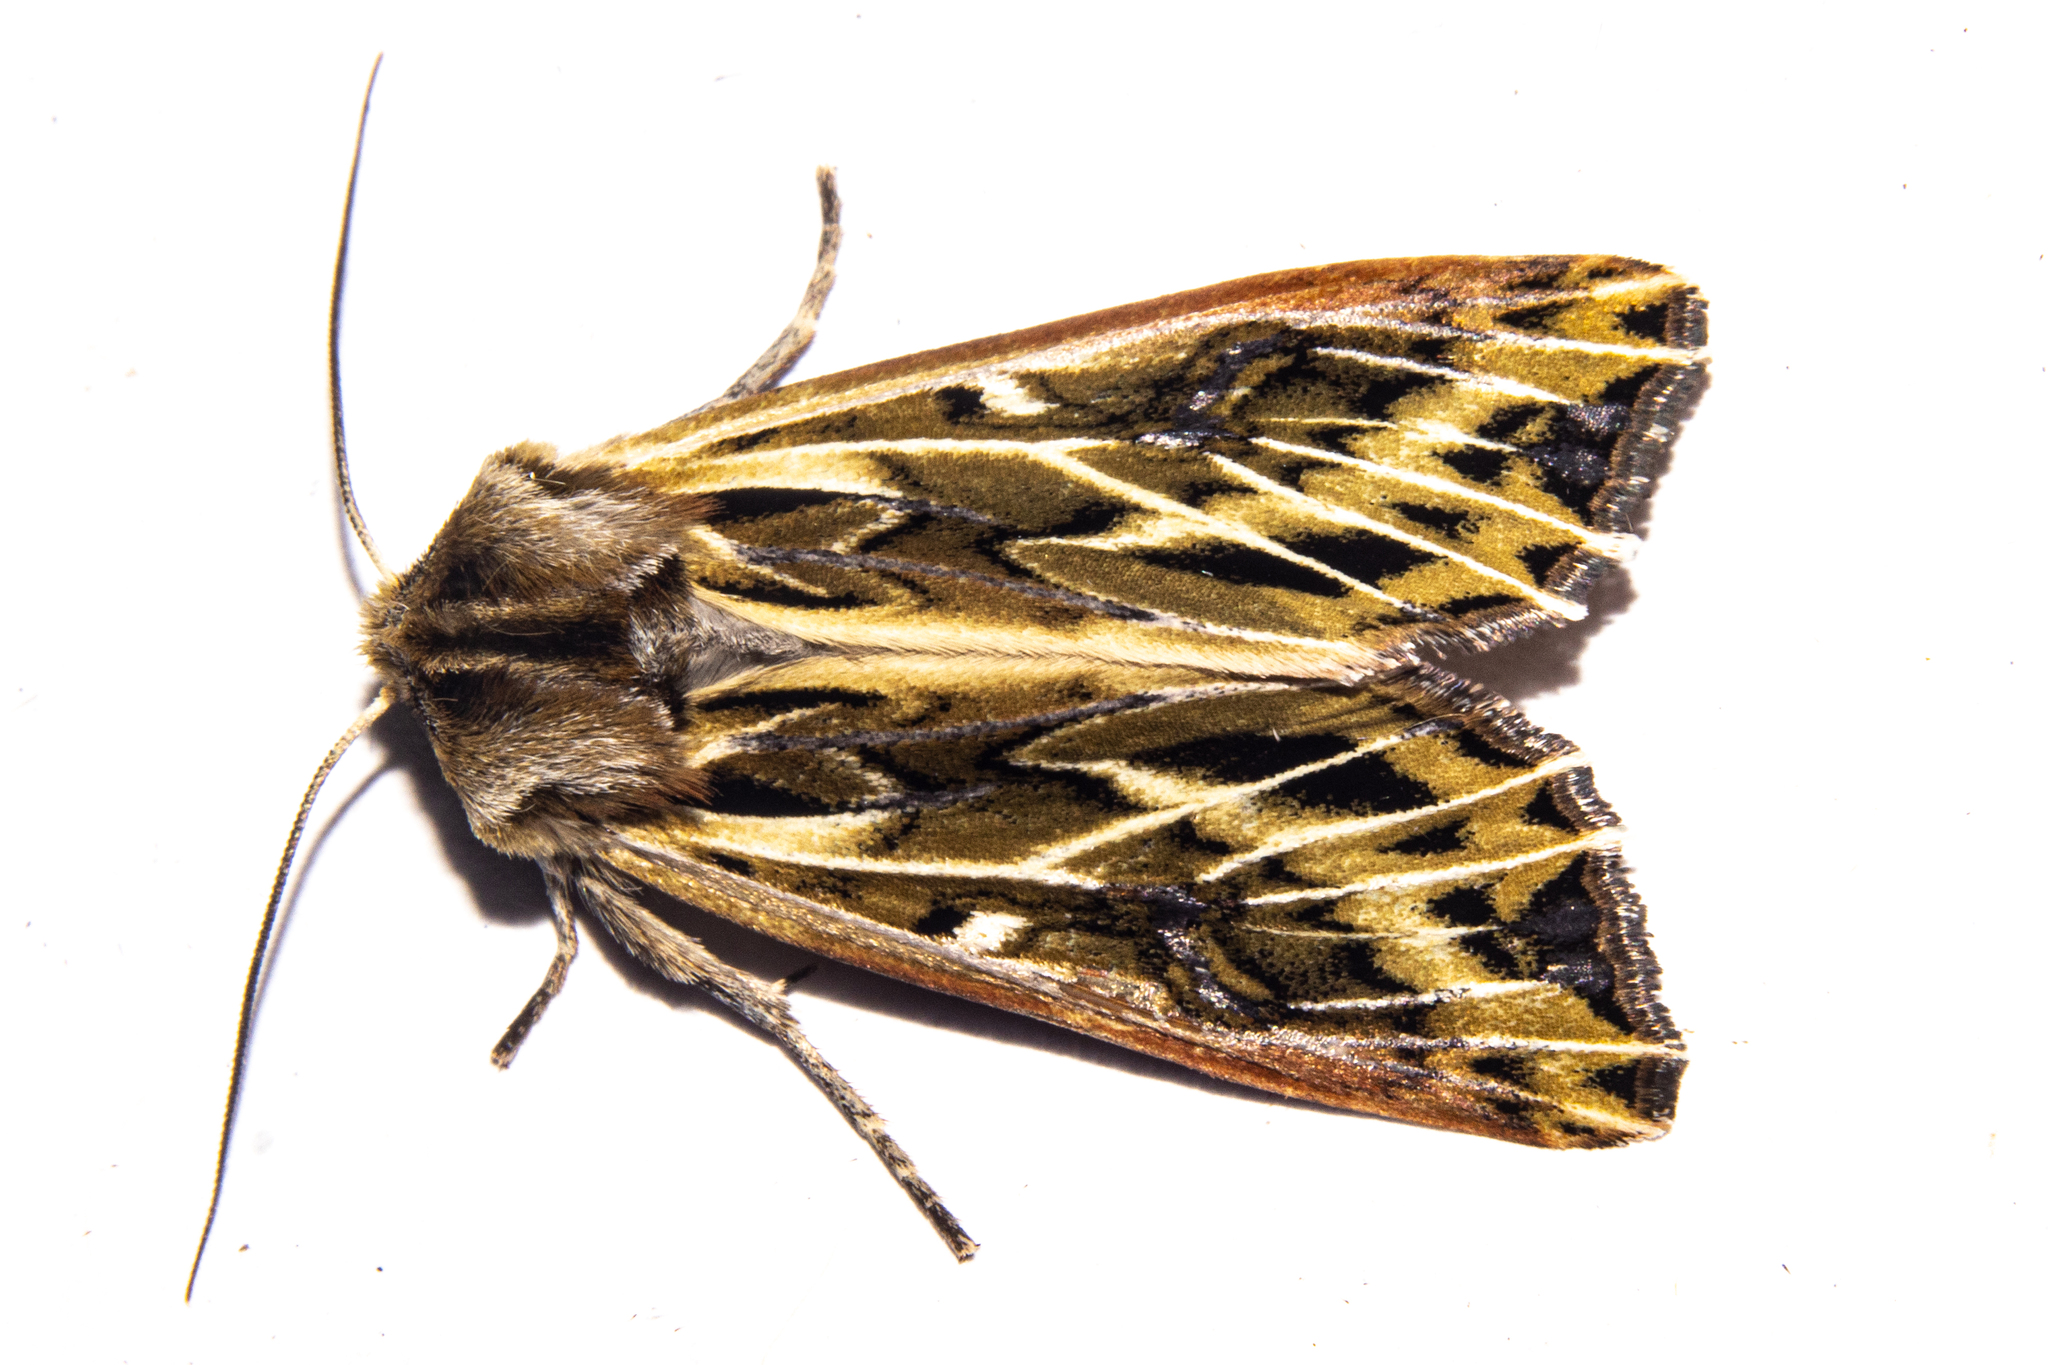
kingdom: Animalia
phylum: Arthropoda
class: Insecta
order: Lepidoptera
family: Noctuidae
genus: Ichneutica
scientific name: Ichneutica
